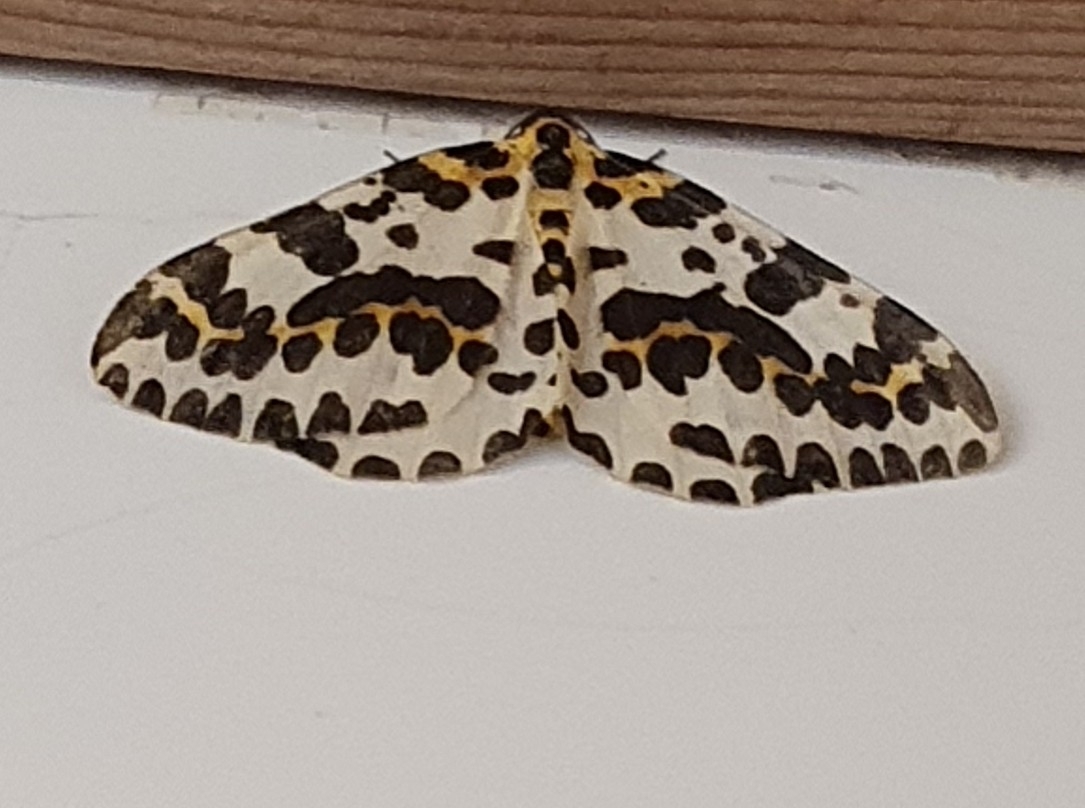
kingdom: Animalia
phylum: Arthropoda
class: Insecta
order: Lepidoptera
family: Geometridae
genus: Abraxas
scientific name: Abraxas grossulariata
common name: Magpie
